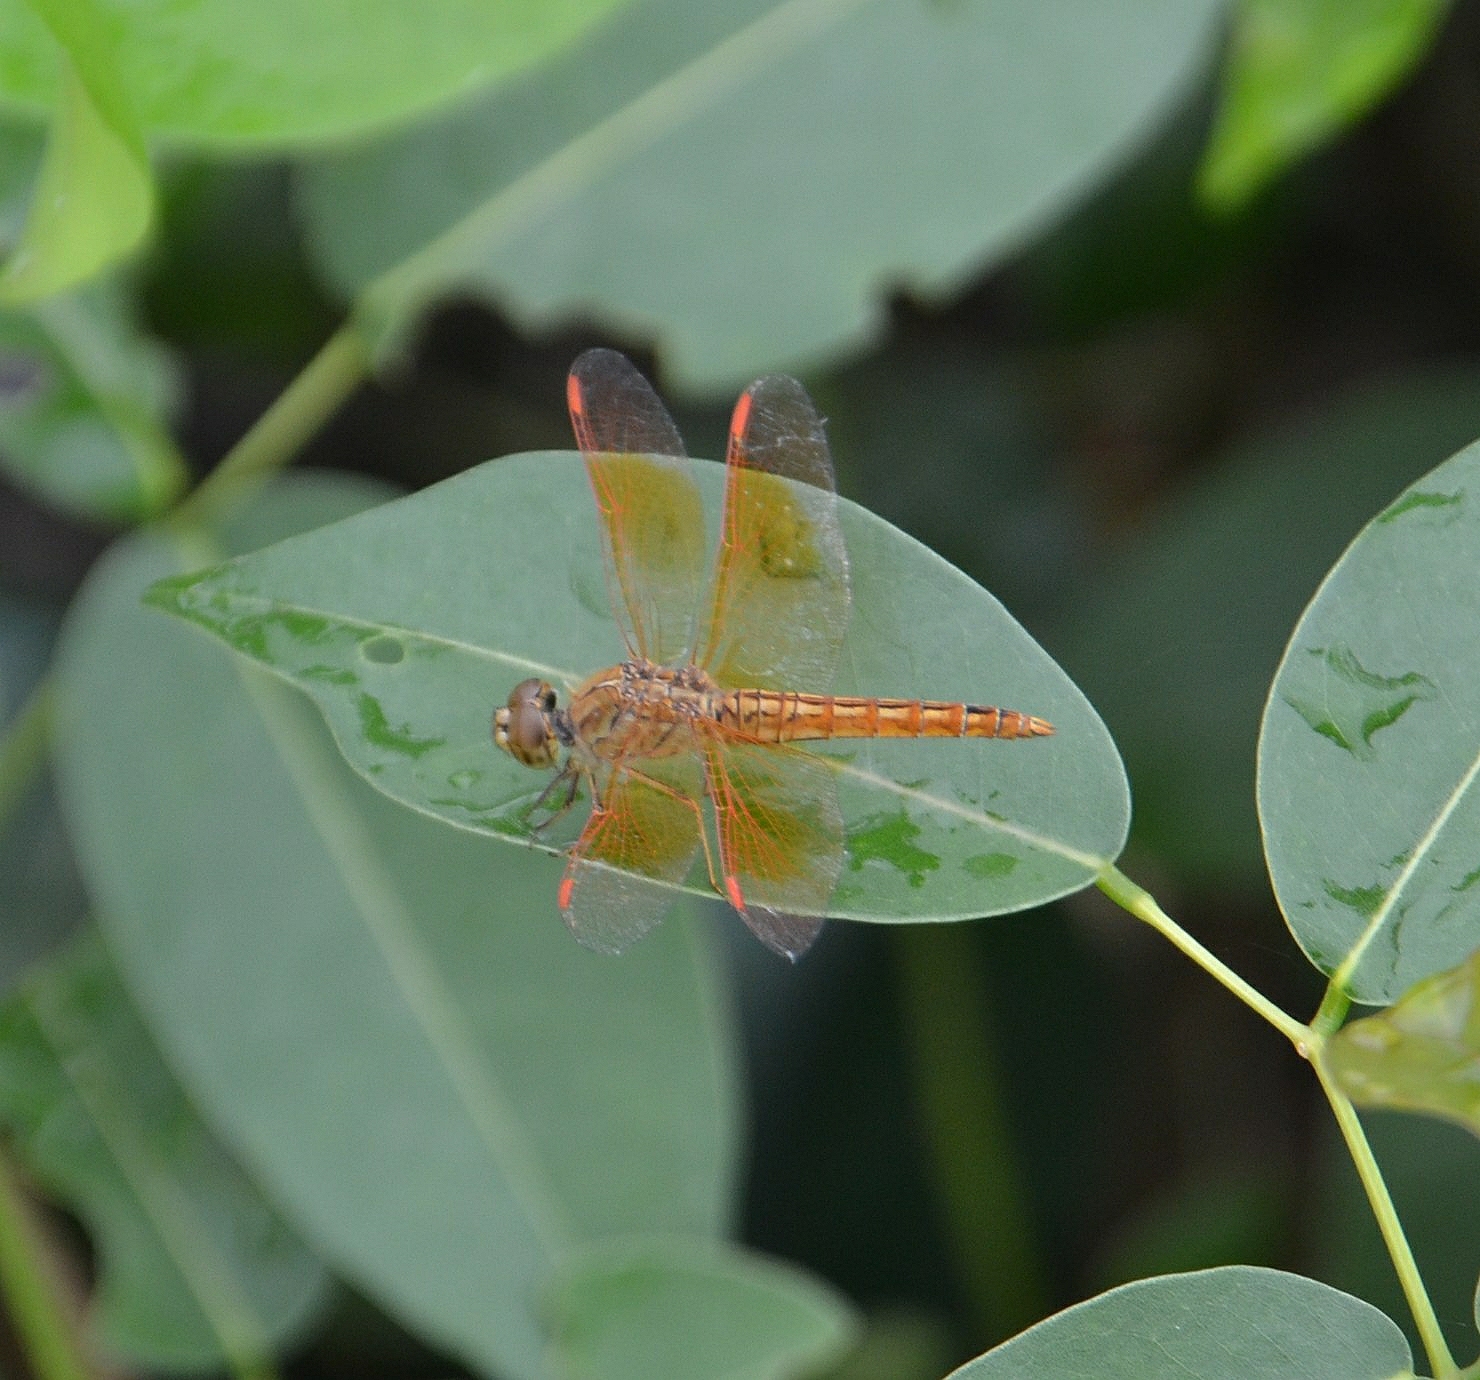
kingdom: Animalia
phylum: Arthropoda
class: Insecta
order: Odonata
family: Libellulidae
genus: Brachythemis
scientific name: Brachythemis contaminata
